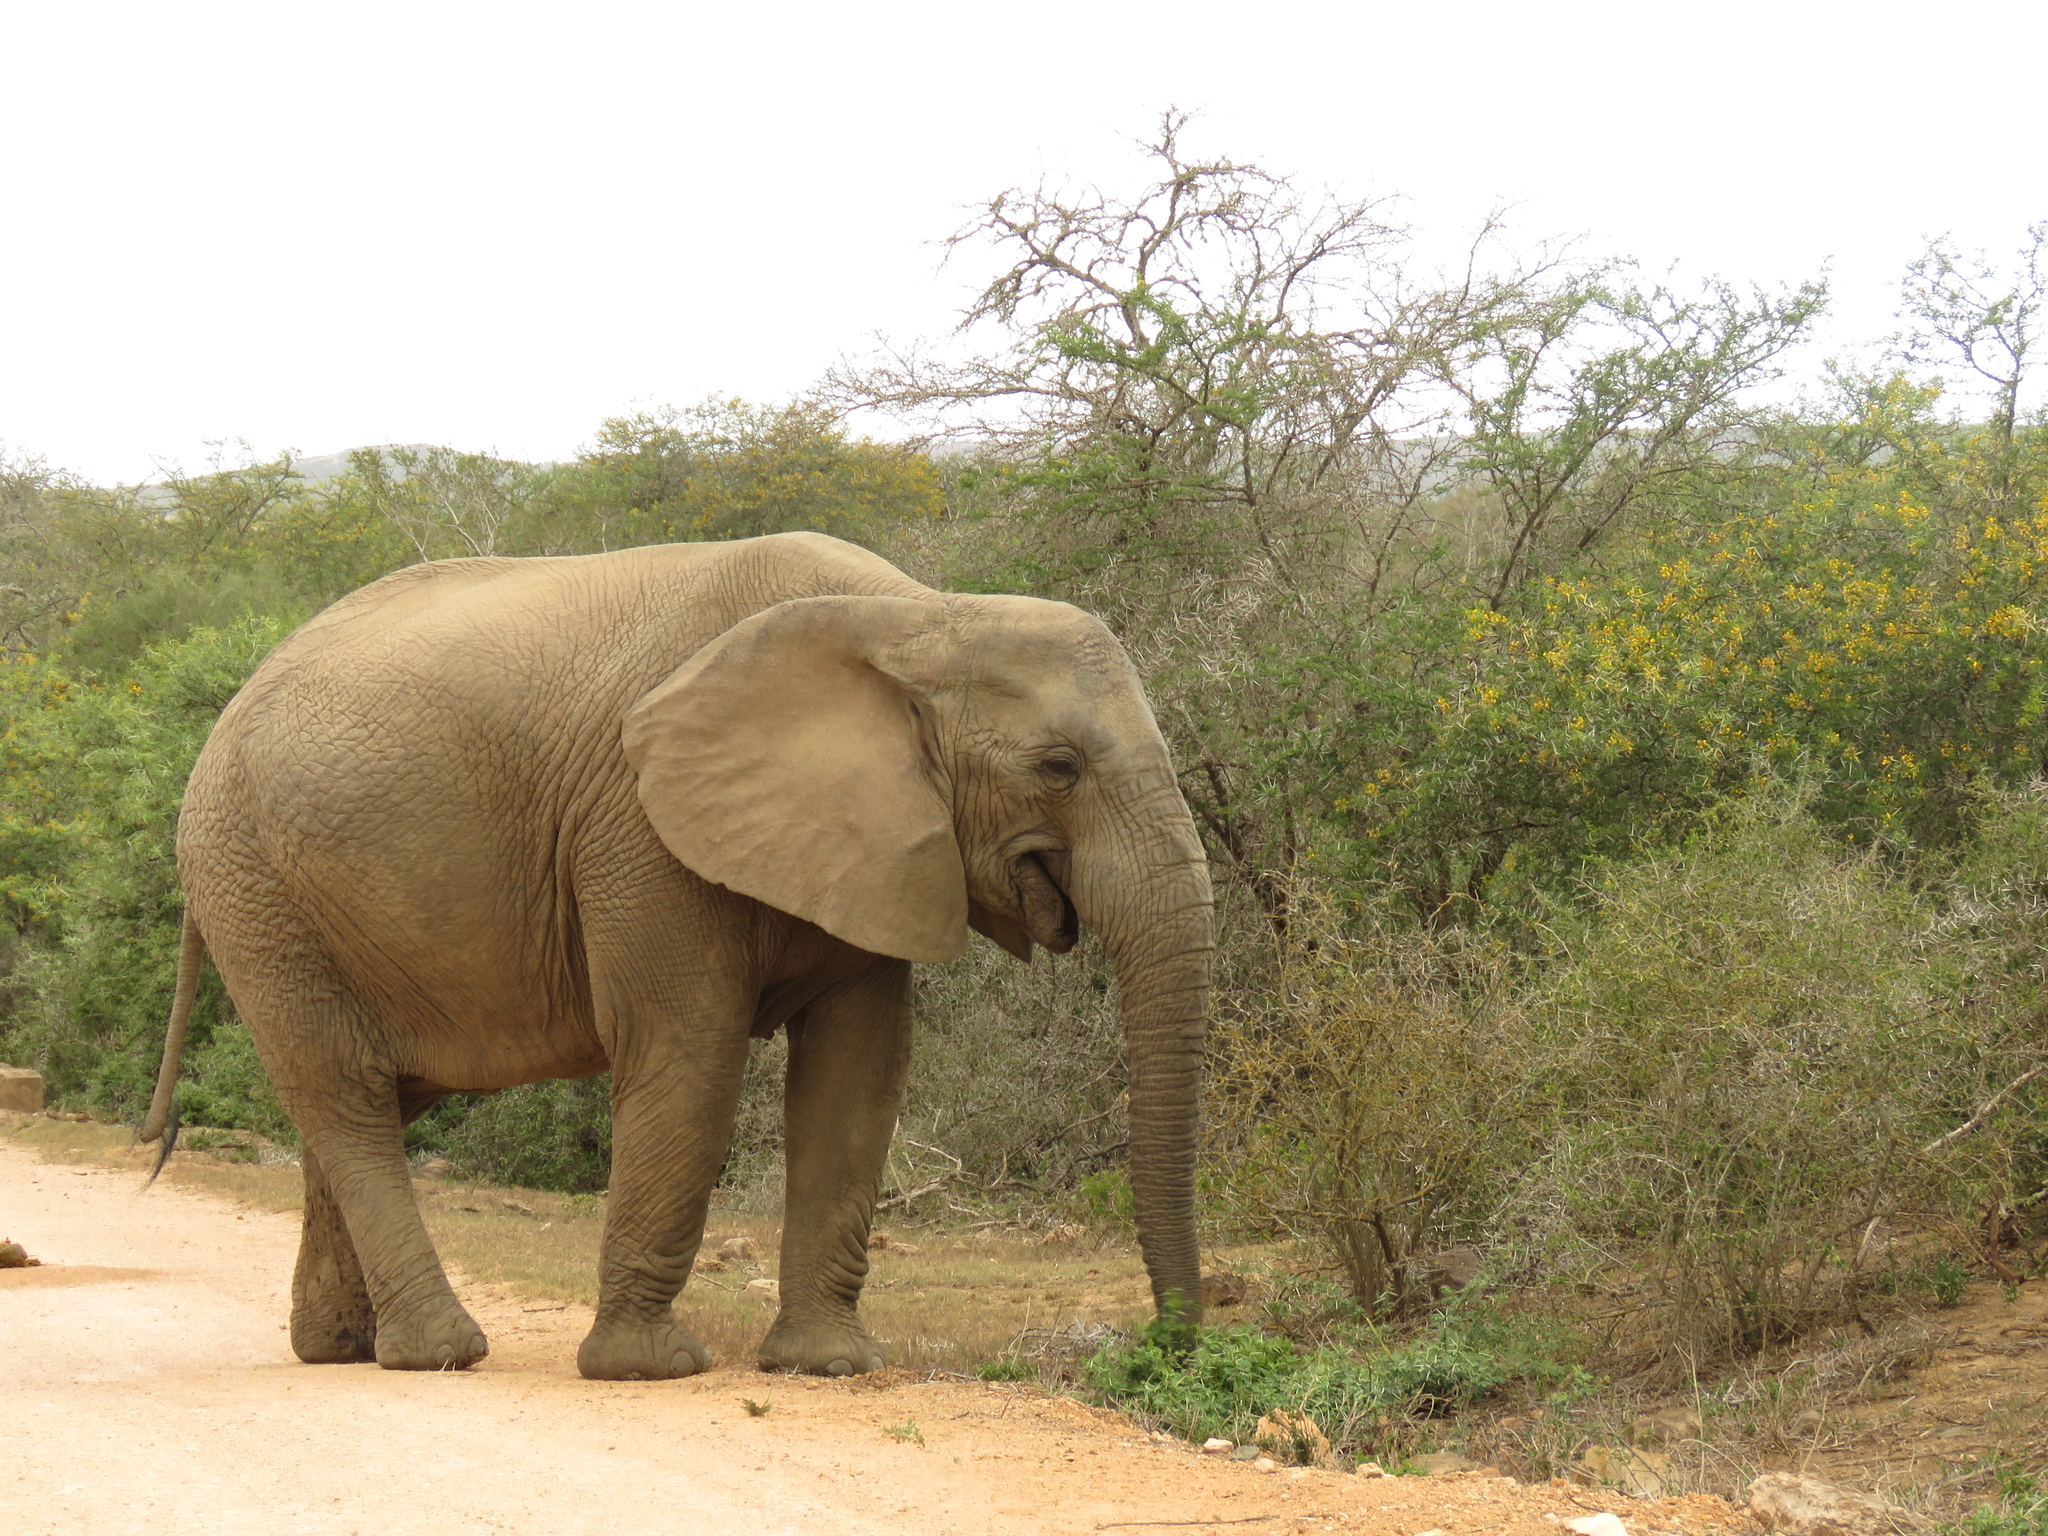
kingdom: Animalia
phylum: Chordata
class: Mammalia
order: Proboscidea
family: Elephantidae
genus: Loxodonta
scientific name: Loxodonta africana
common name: African elephant
